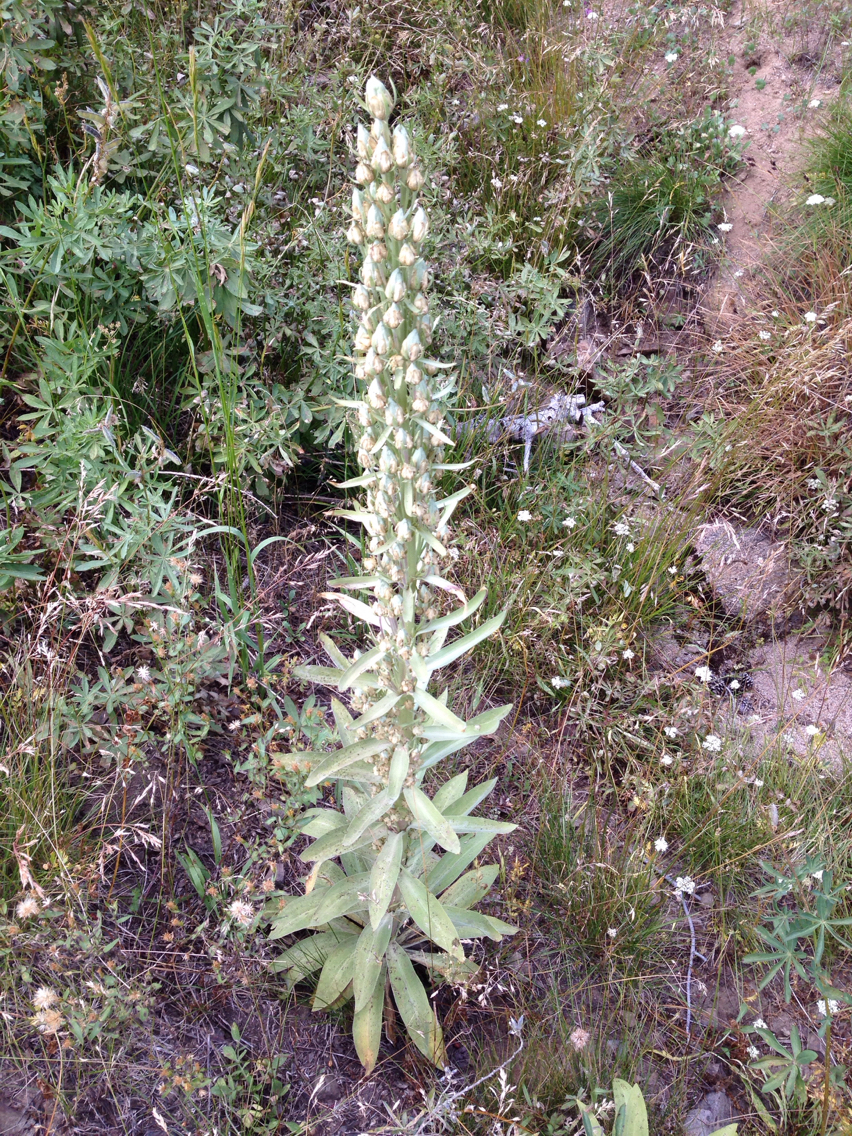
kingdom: Plantae
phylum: Tracheophyta
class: Magnoliopsida
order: Gentianales
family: Gentianaceae
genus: Frasera
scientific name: Frasera speciosa
